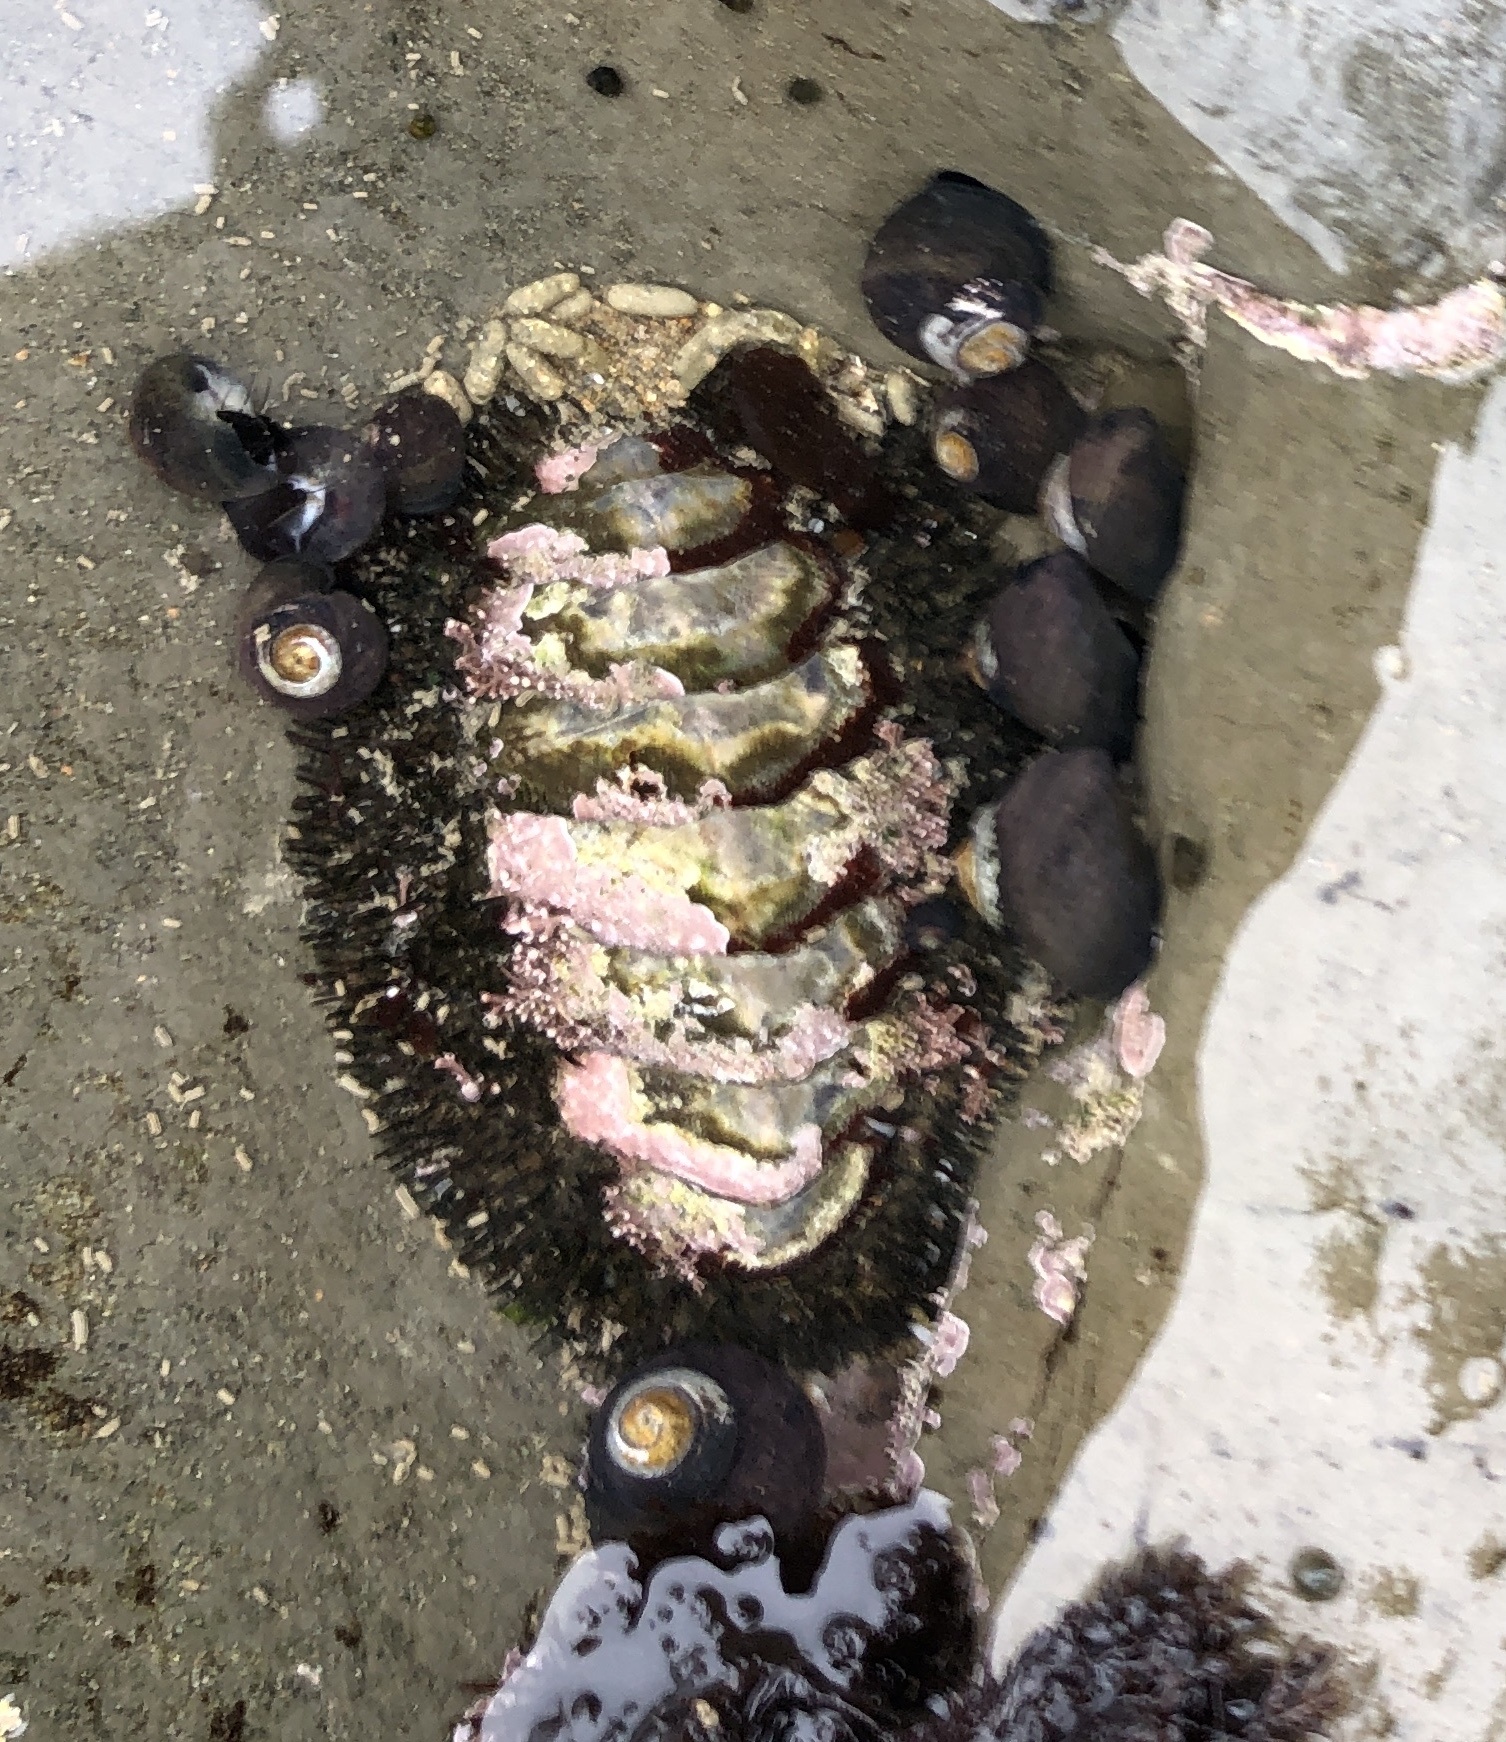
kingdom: Animalia
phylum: Mollusca
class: Polyplacophora
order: Chitonida
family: Mopaliidae
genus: Mopalia
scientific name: Mopalia muscosa
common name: Mossy chiton
